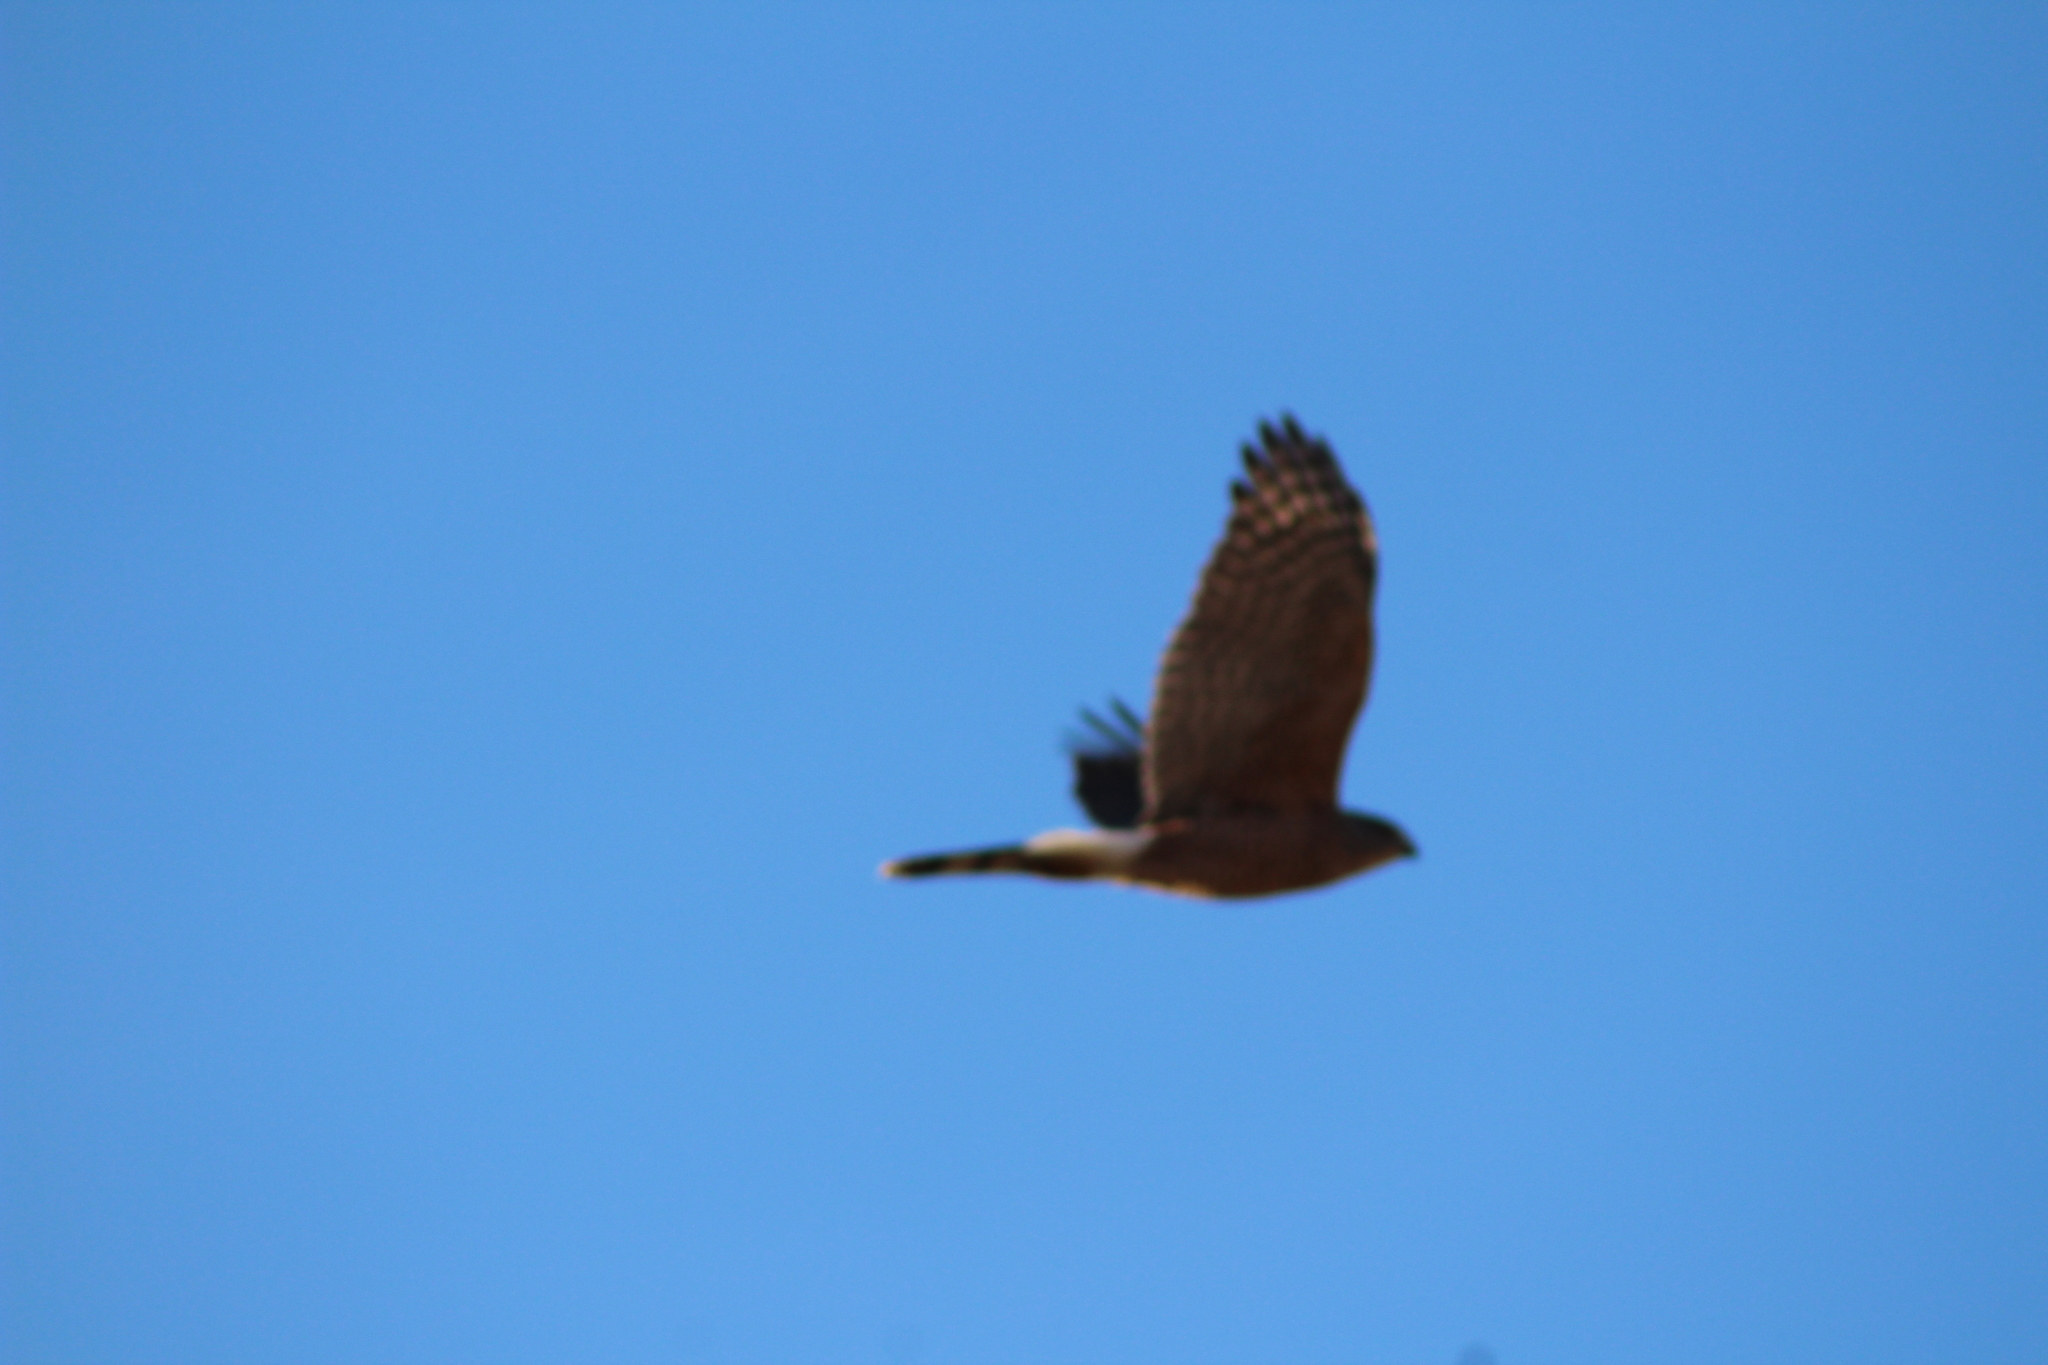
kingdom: Animalia
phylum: Chordata
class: Aves
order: Accipitriformes
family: Accipitridae
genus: Accipiter
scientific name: Accipiter cooperii
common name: Cooper's hawk
